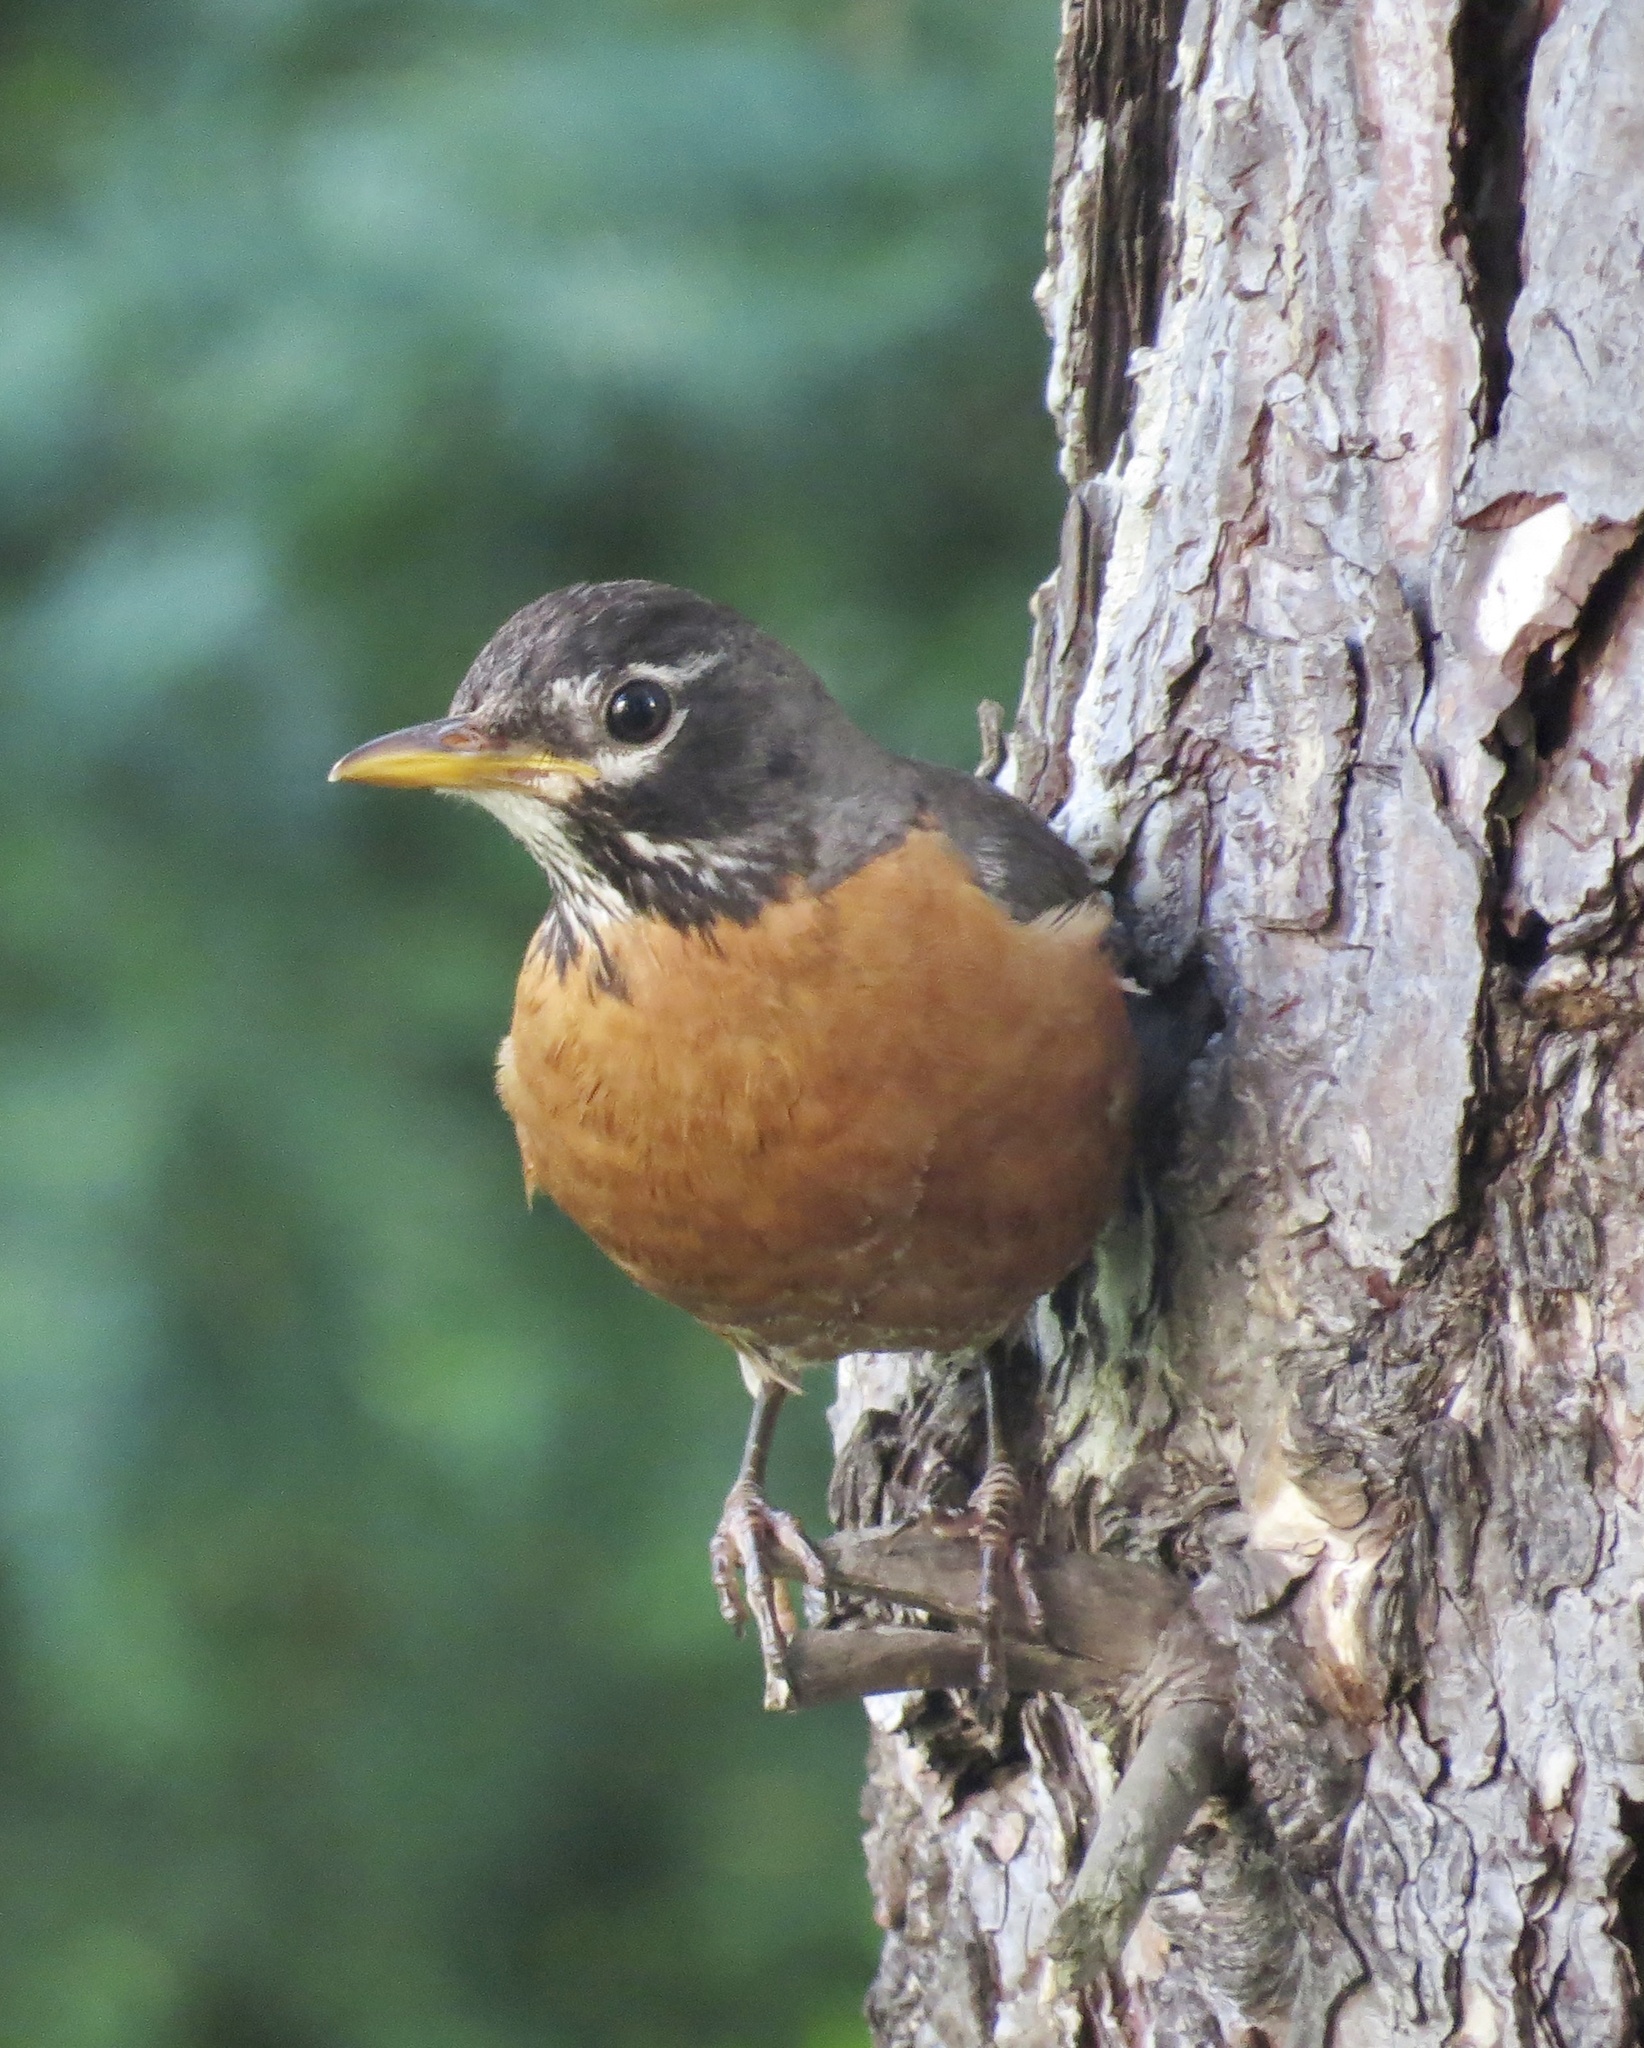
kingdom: Animalia
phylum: Chordata
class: Aves
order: Passeriformes
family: Turdidae
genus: Turdus
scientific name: Turdus migratorius
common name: American robin
